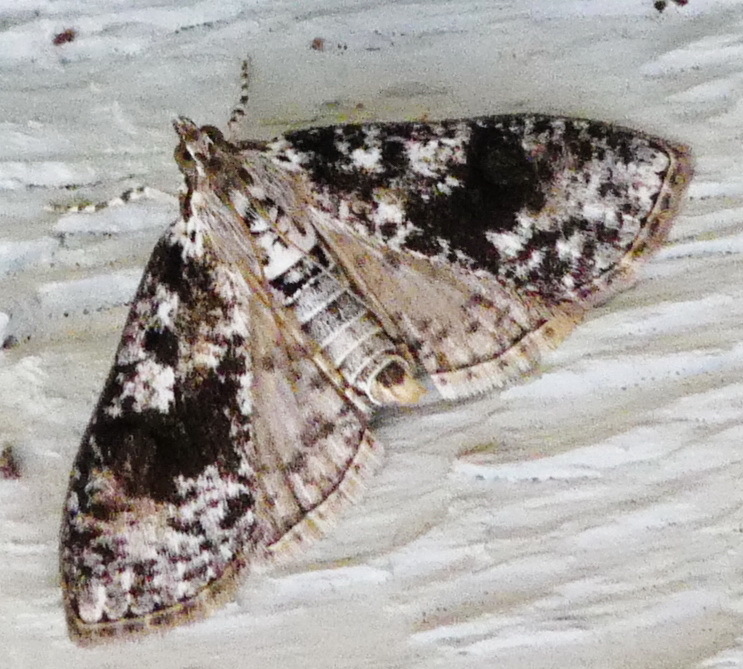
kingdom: Animalia
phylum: Arthropoda
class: Insecta
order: Lepidoptera
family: Crambidae
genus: Palpita
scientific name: Palpita magniferalis
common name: Splendid palpita moth
